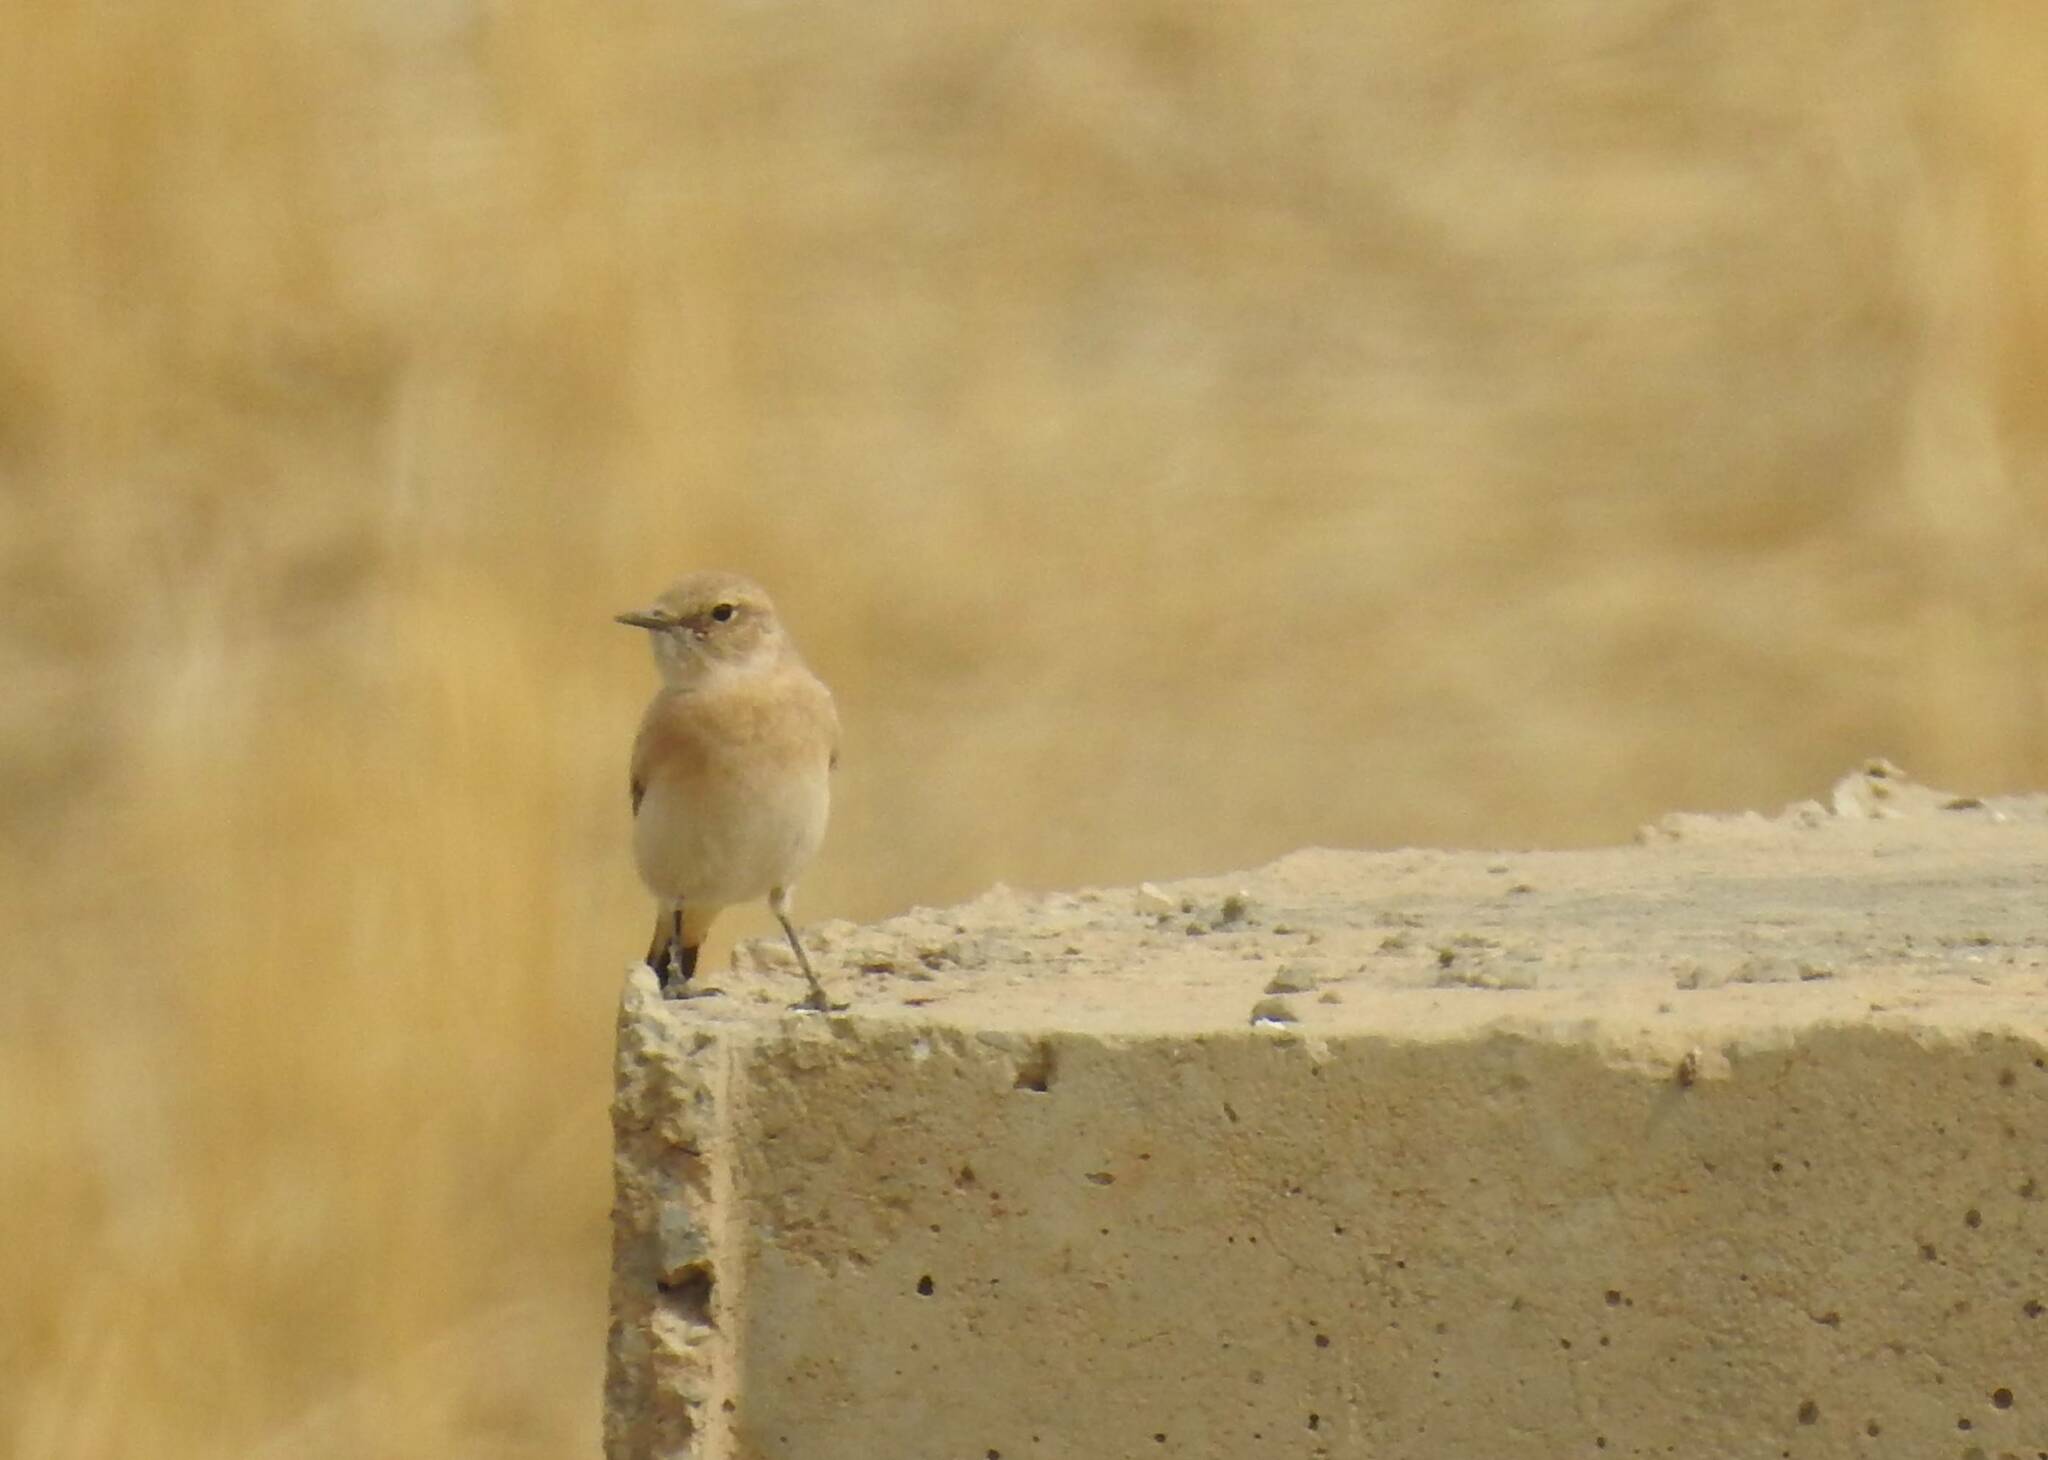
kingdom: Animalia
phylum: Chordata
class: Aves
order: Passeriformes
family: Muscicapidae
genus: Oenanthe
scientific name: Oenanthe hispanica
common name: Black-eared wheatear
